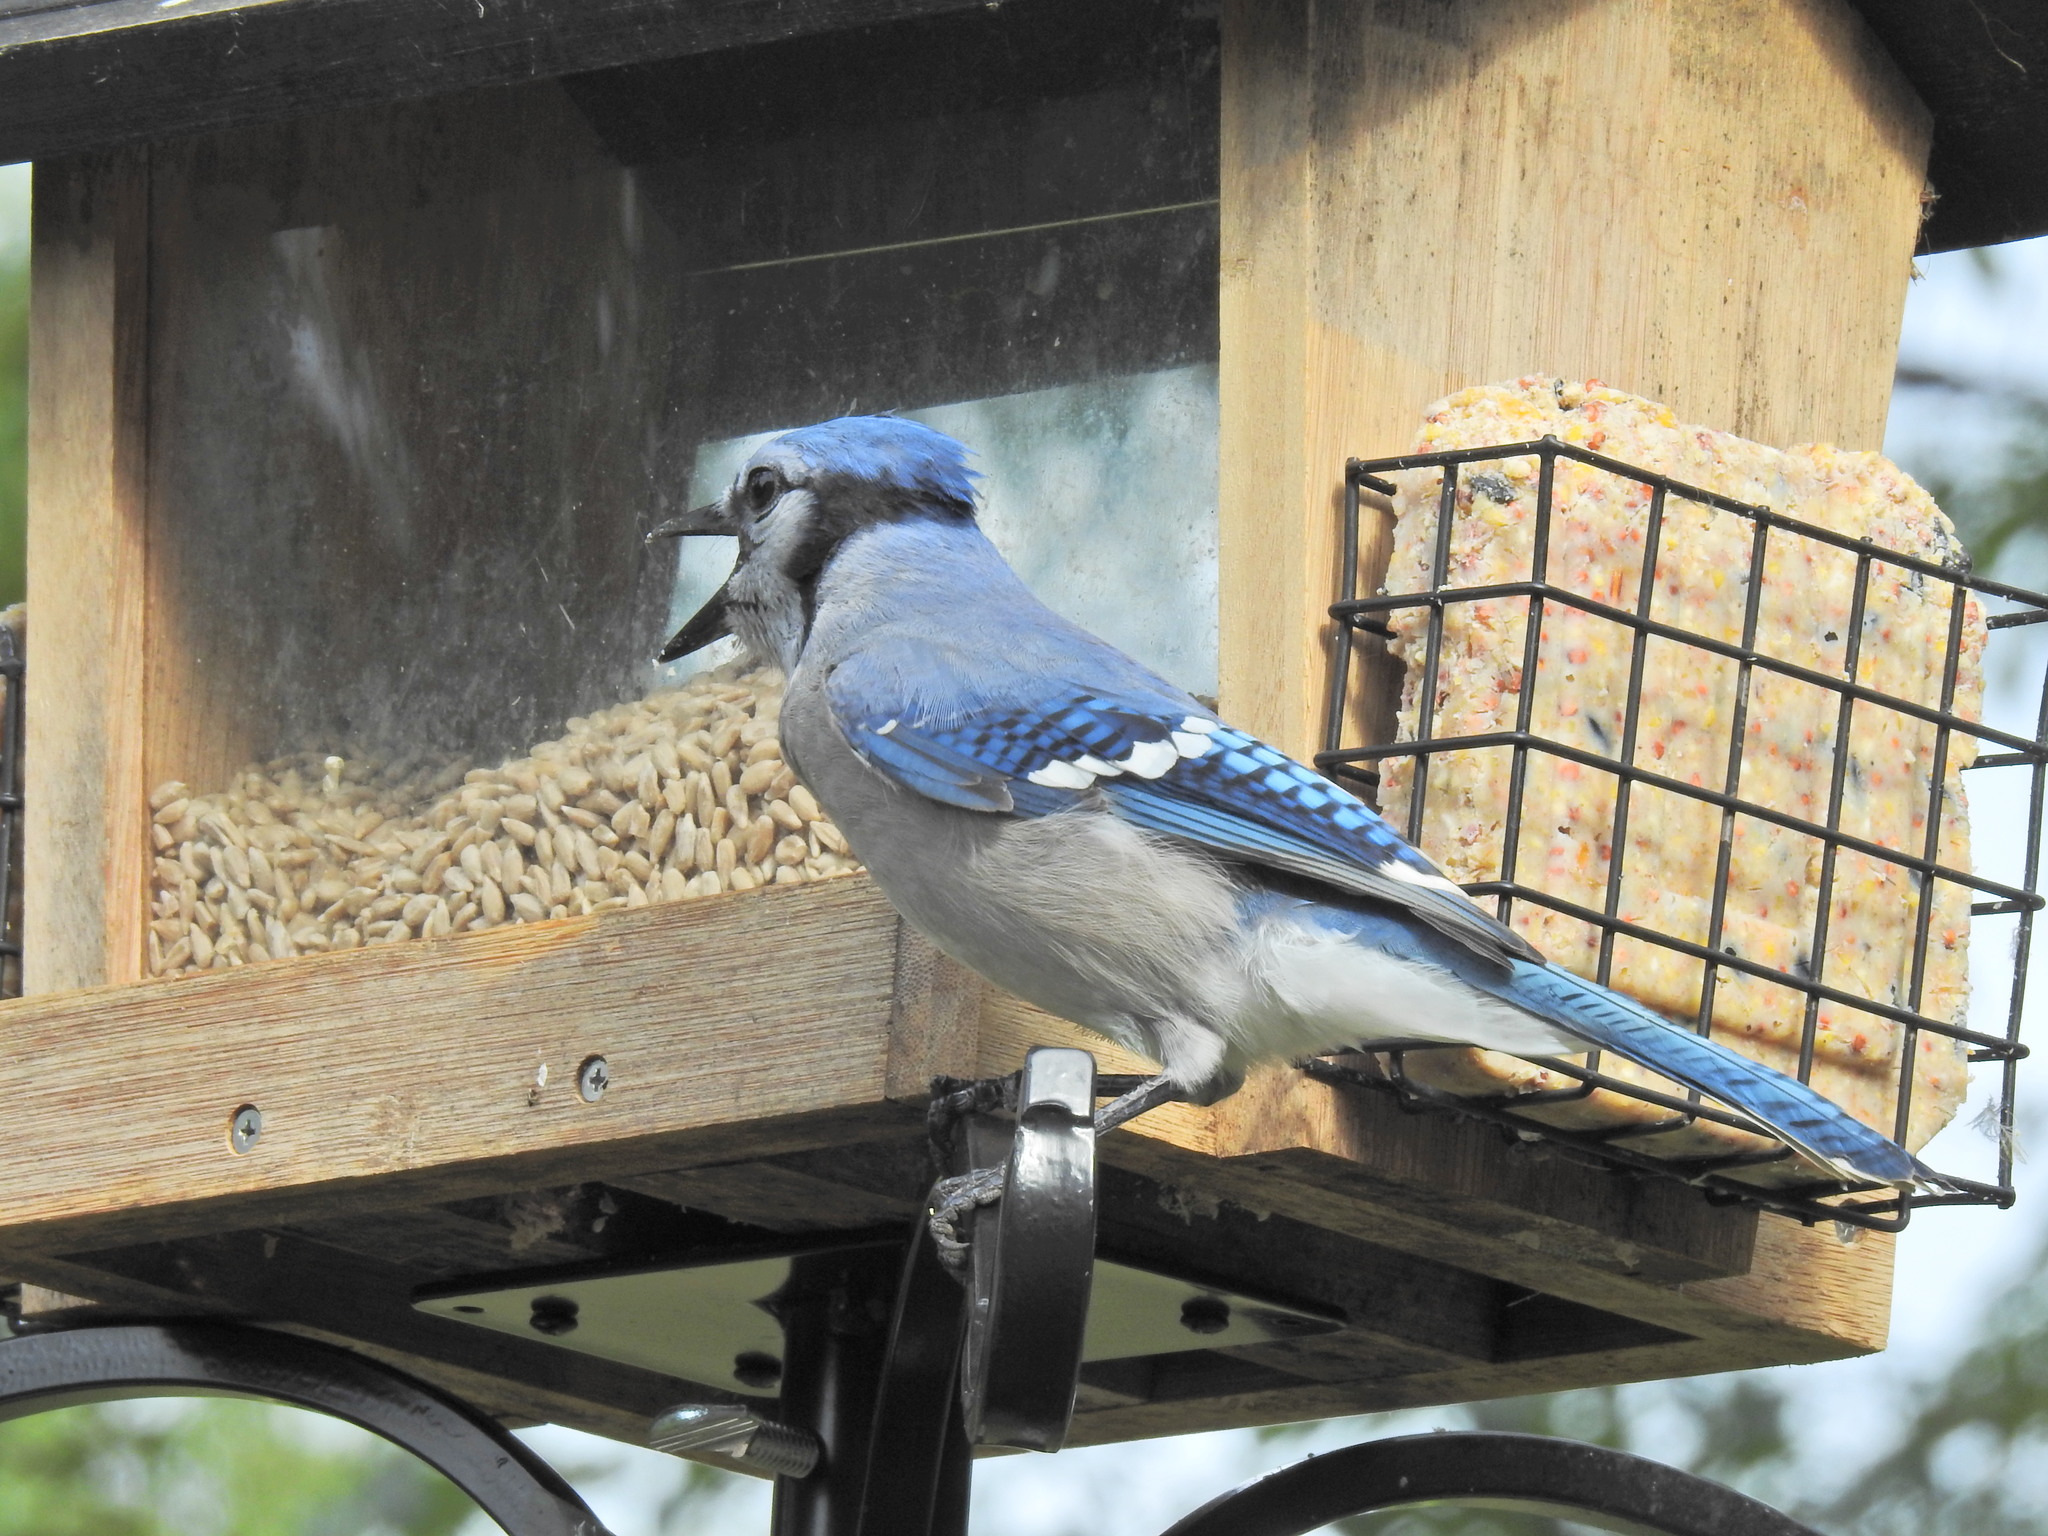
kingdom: Animalia
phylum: Chordata
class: Aves
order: Passeriformes
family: Corvidae
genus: Cyanocitta
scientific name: Cyanocitta cristata
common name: Blue jay
